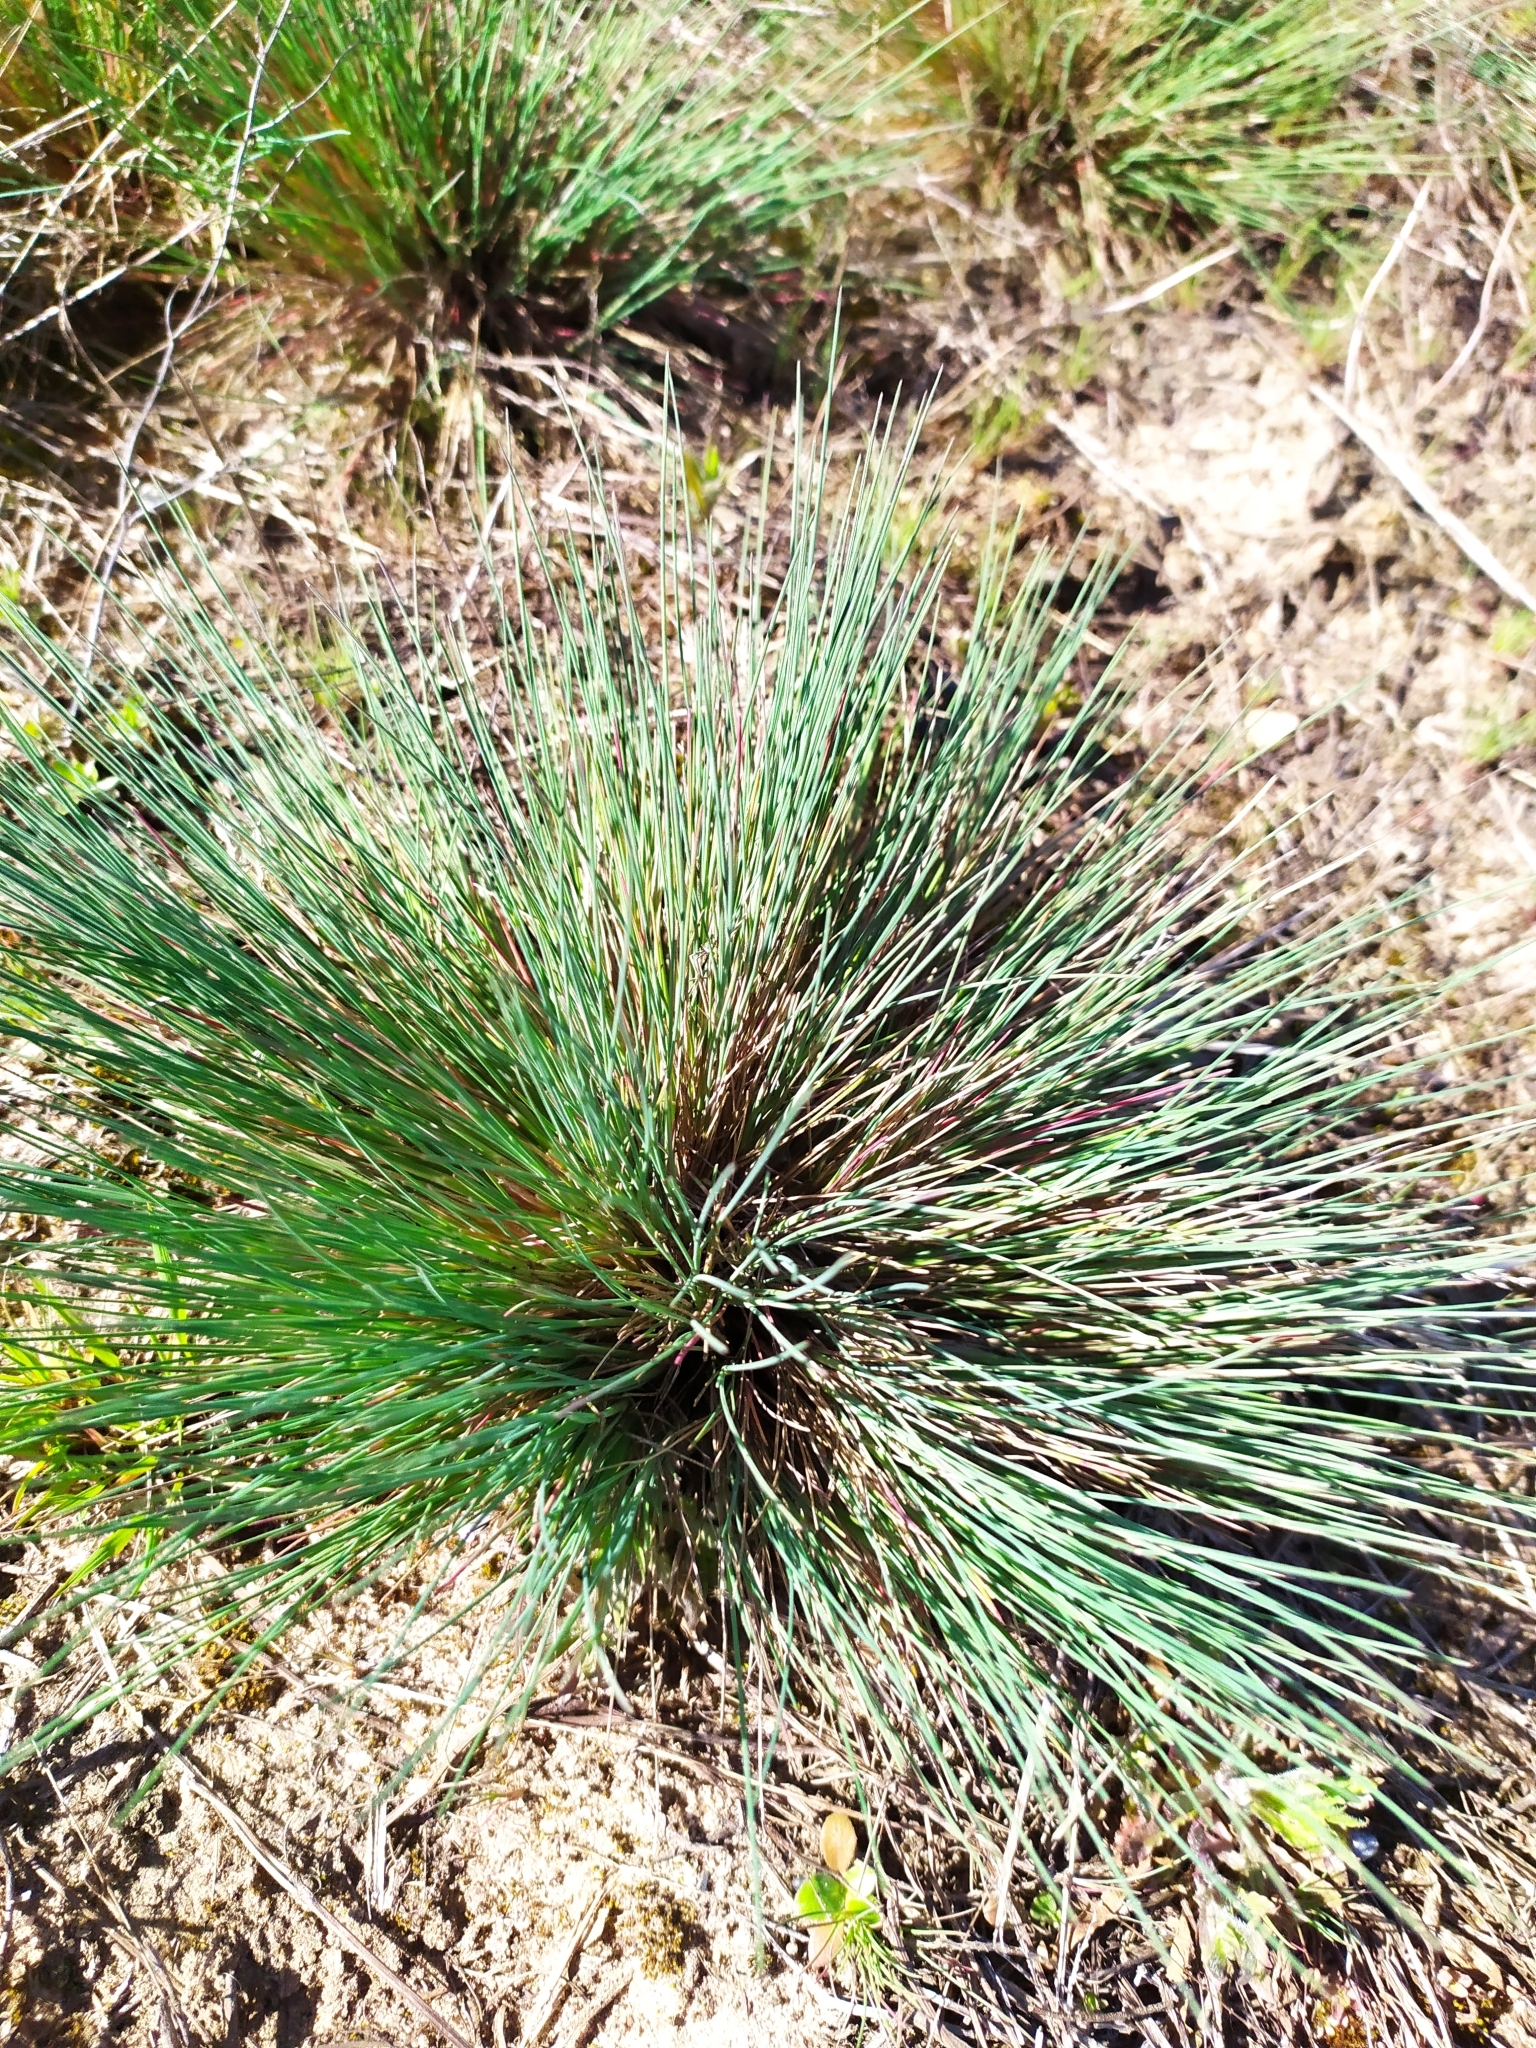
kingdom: Plantae
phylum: Tracheophyta
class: Liliopsida
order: Poales
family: Poaceae
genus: Corynephorus
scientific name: Corynephorus canescens
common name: Grey hair-grass
